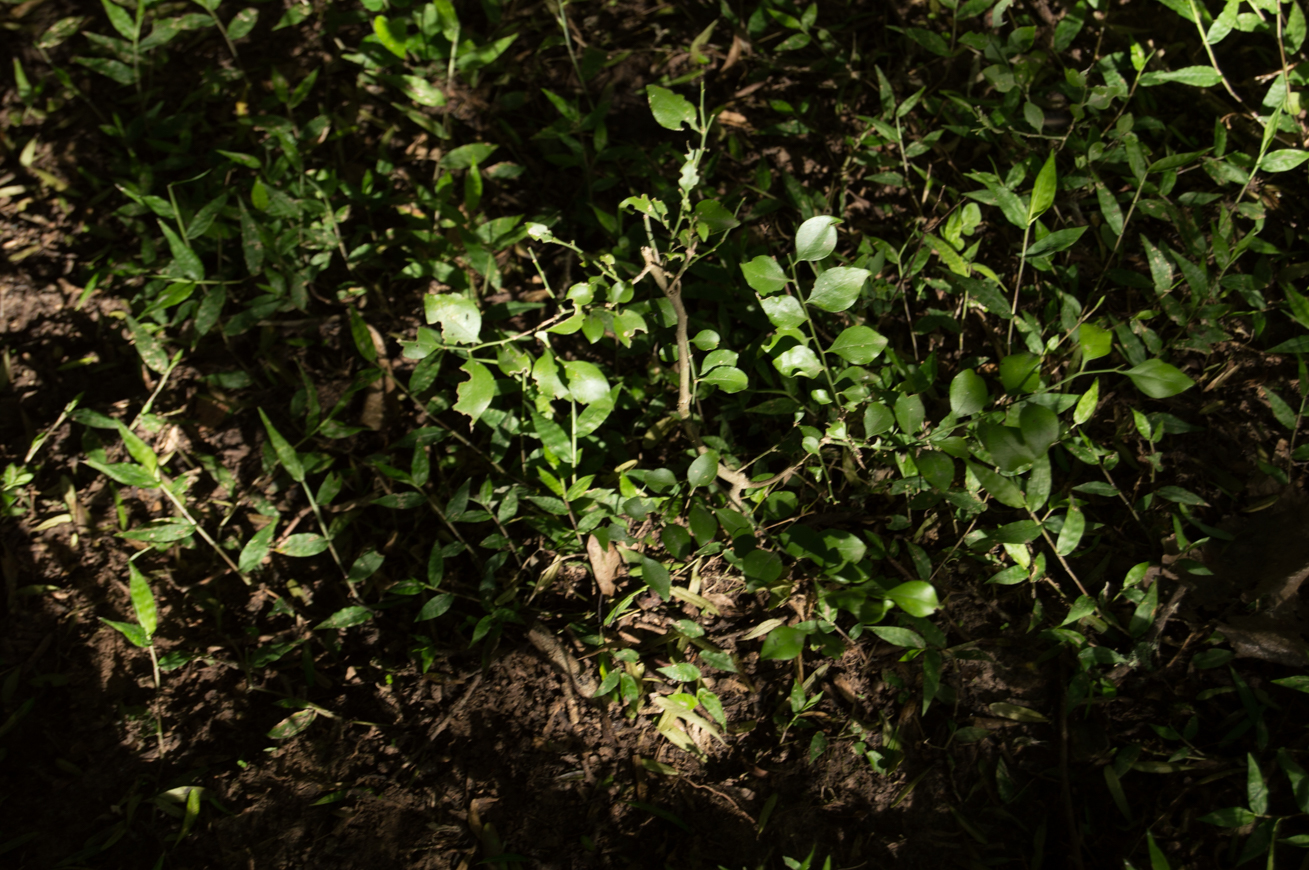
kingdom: Plantae
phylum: Tracheophyta
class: Magnoliopsida
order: Celastrales
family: Celastraceae
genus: Schaefferia
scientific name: Schaefferia argentinensis
